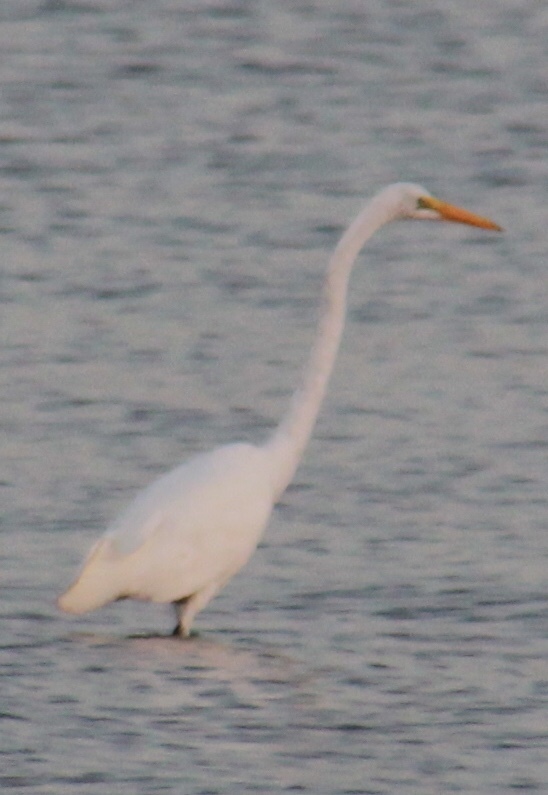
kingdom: Animalia
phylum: Chordata
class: Aves
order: Pelecaniformes
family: Ardeidae
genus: Ardea
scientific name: Ardea alba
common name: Great egret
